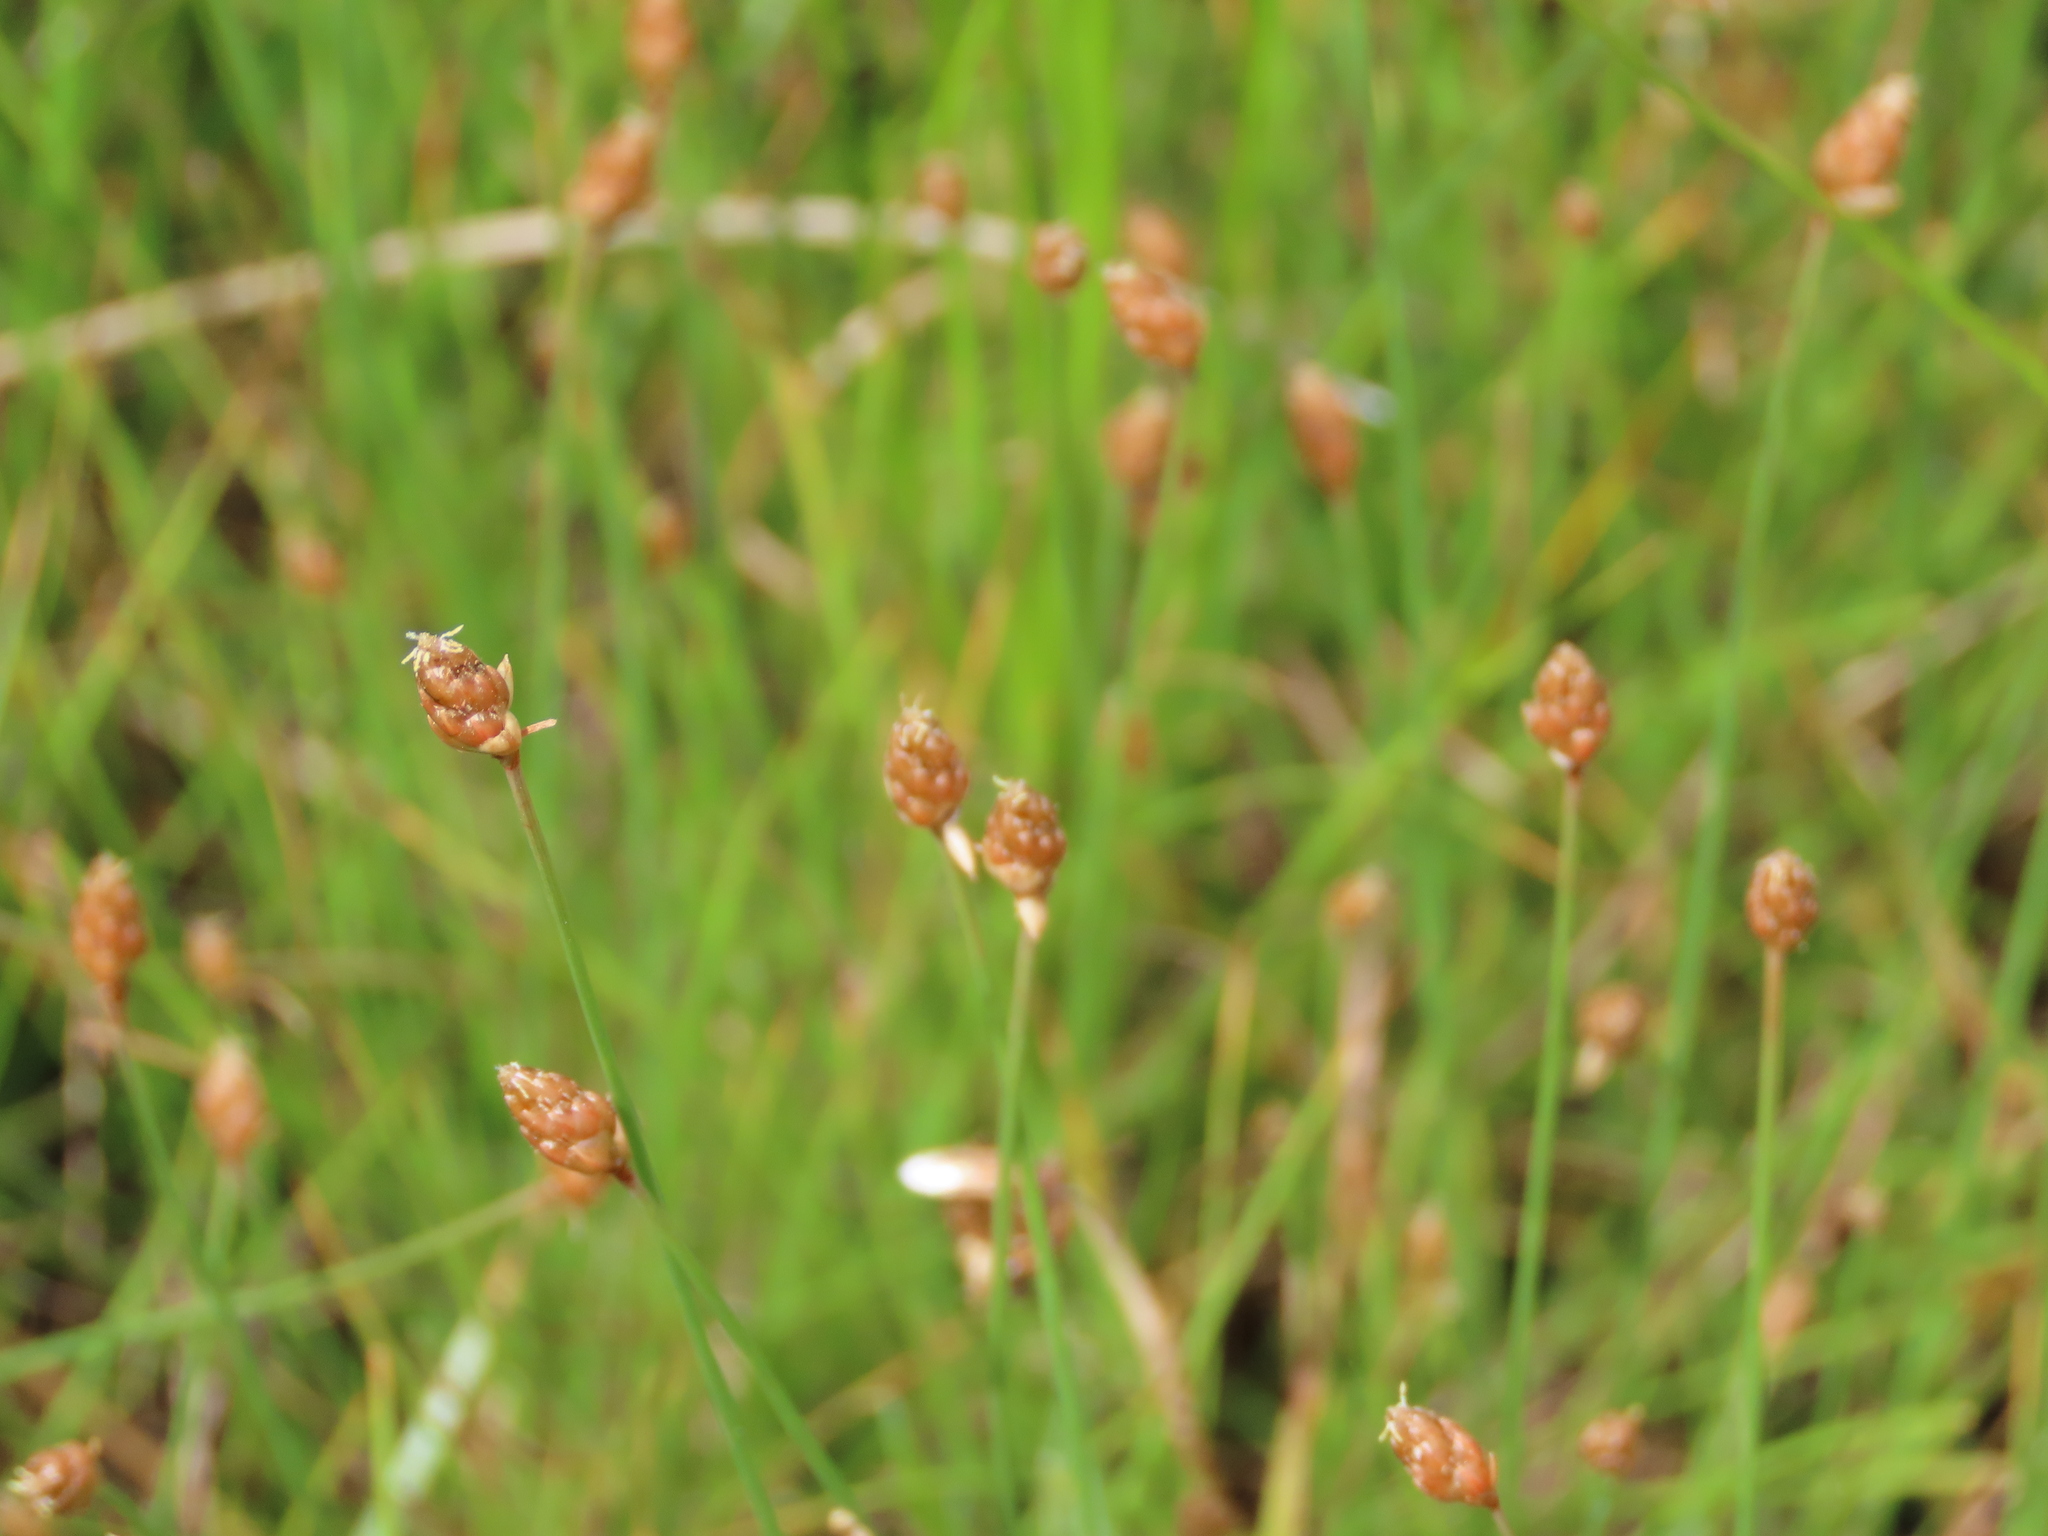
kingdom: Plantae
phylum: Tracheophyta
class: Liliopsida
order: Poales
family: Cyperaceae
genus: Fimbristylis
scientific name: Fimbristylis schoenoides
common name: Ditch fimbry
